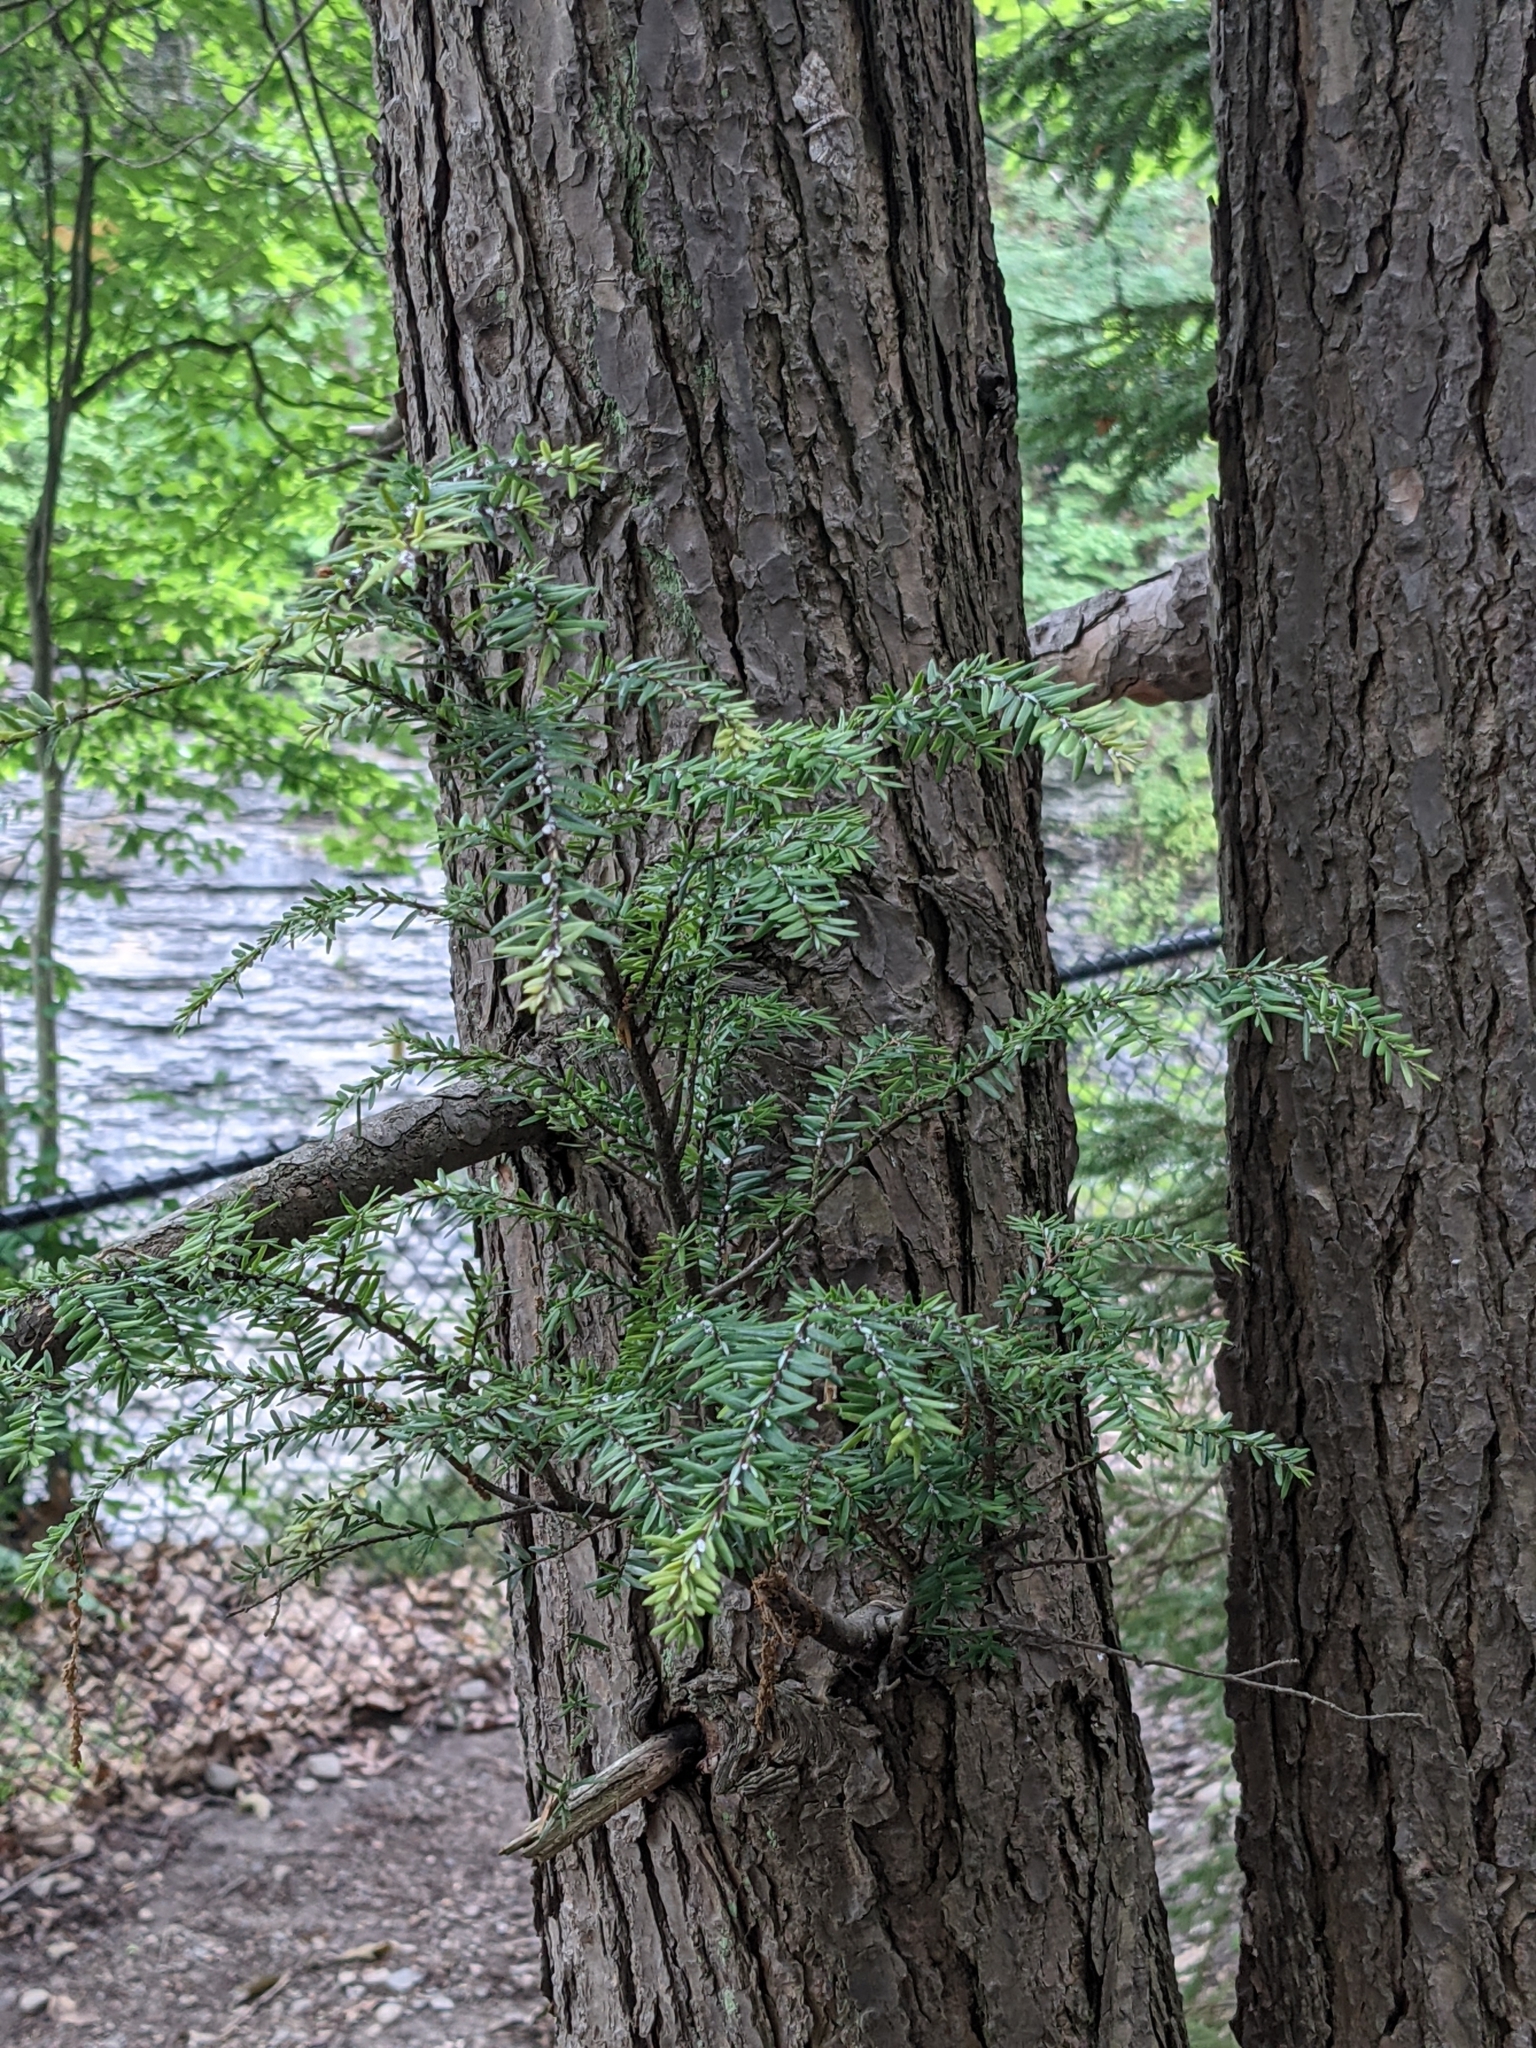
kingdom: Plantae
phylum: Tracheophyta
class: Pinopsida
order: Pinales
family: Pinaceae
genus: Tsuga
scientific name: Tsuga canadensis
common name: Eastern hemlock
